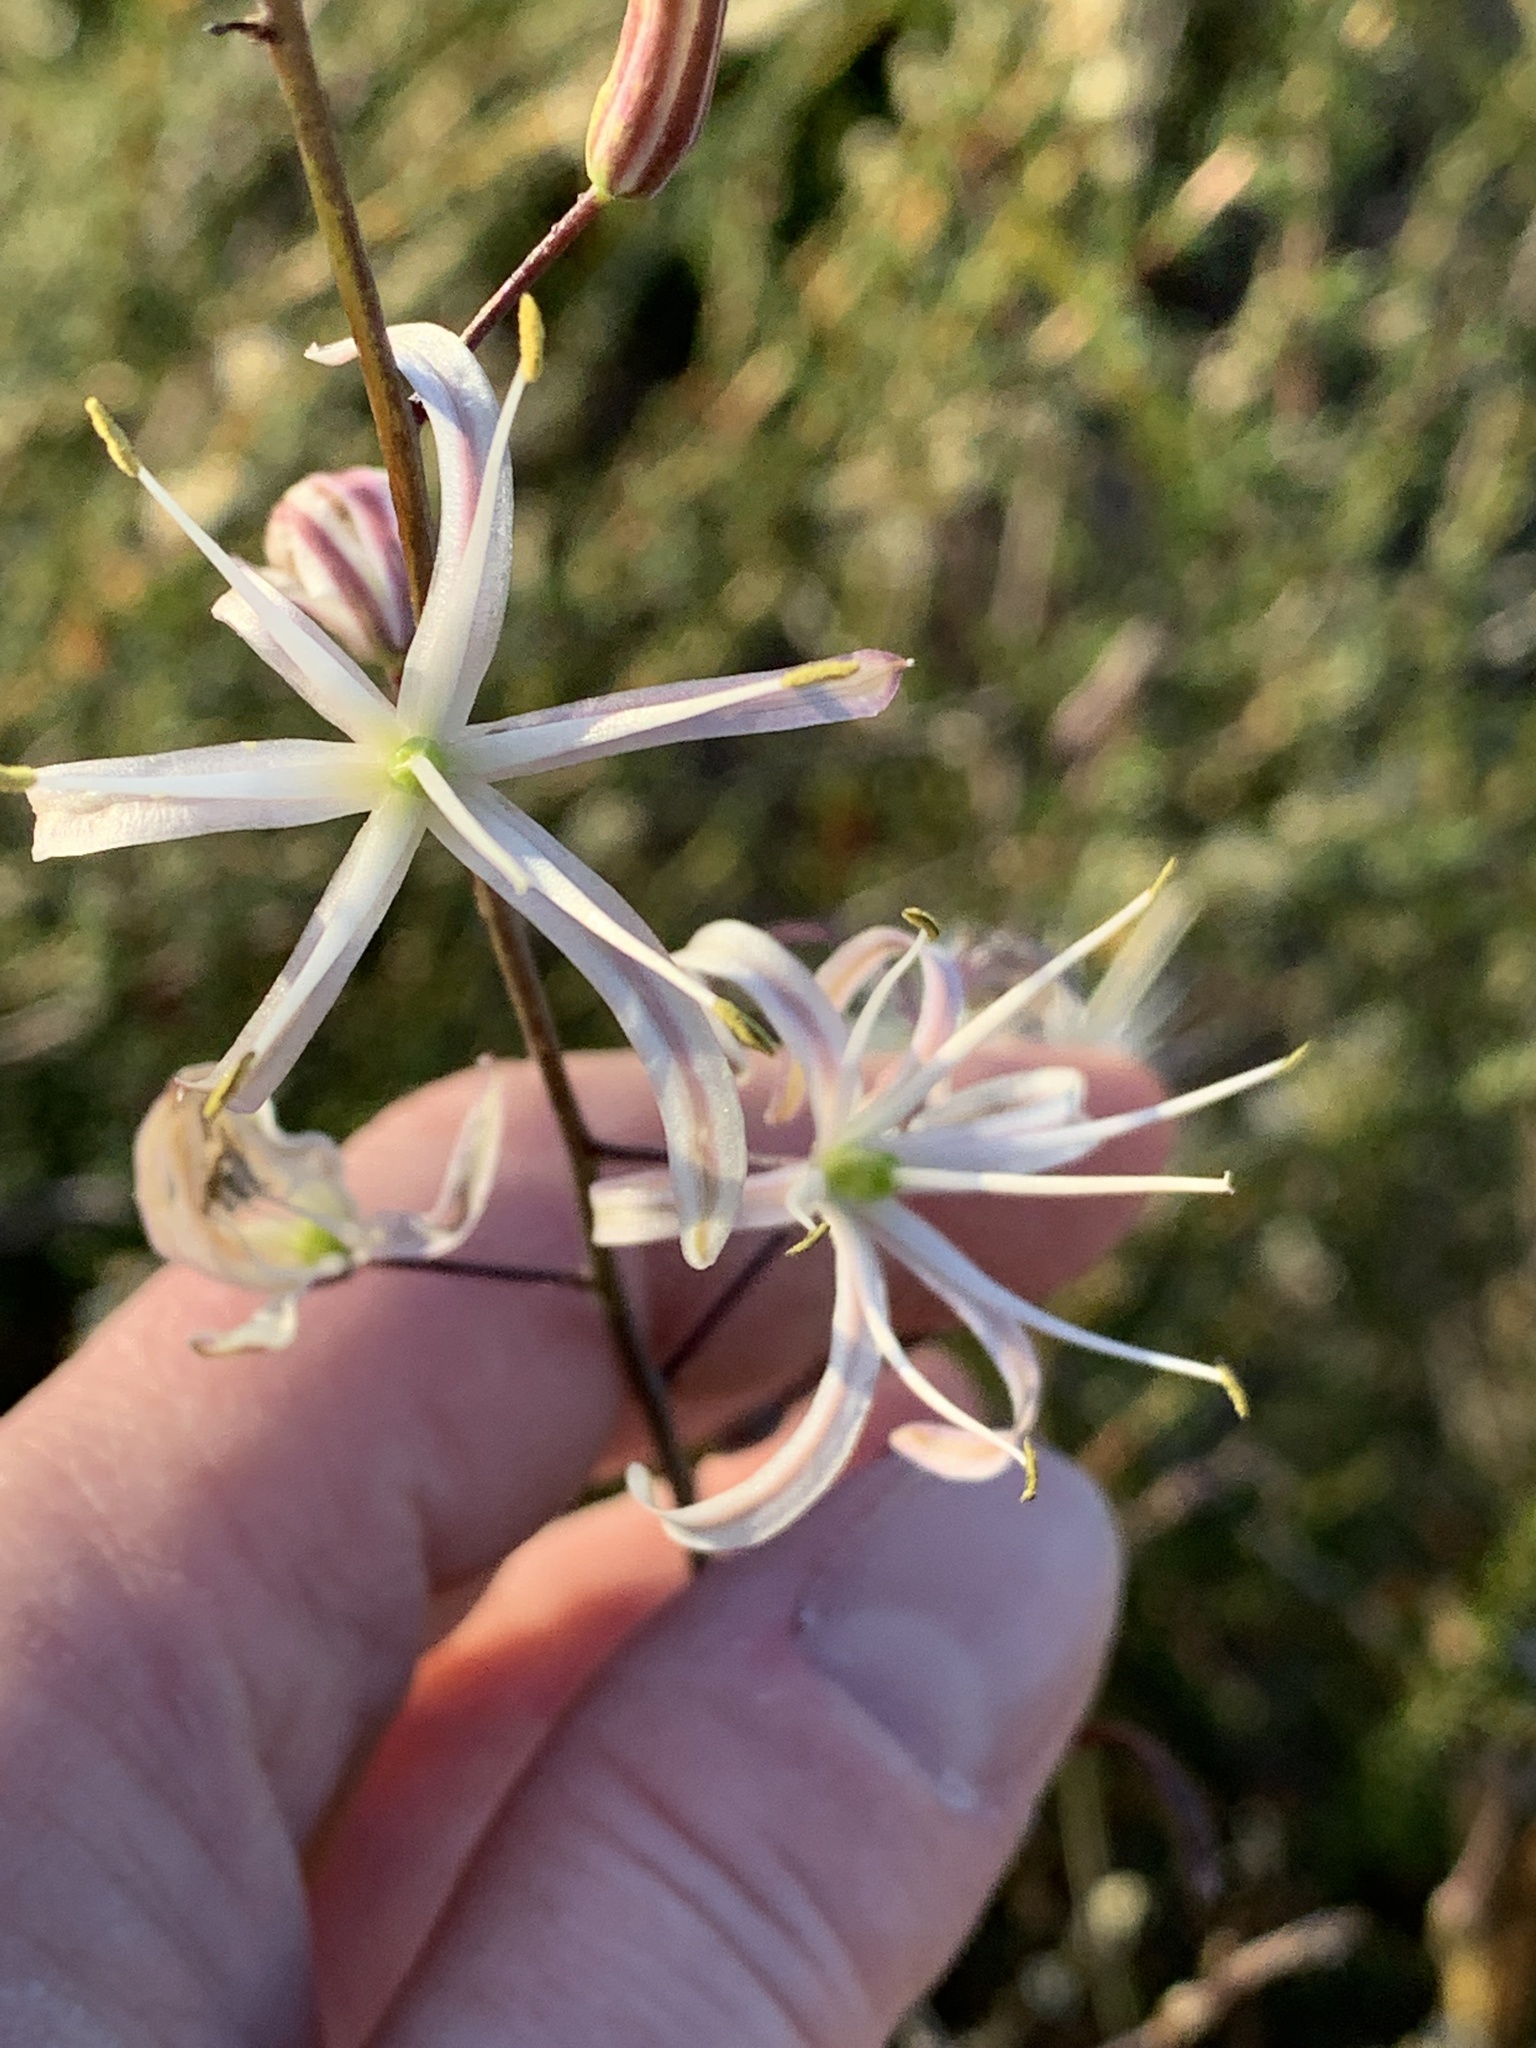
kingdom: Plantae
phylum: Tracheophyta
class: Liliopsida
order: Asparagales
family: Asparagaceae
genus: Chlorogalum
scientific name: Chlorogalum pomeridianum
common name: Amole
